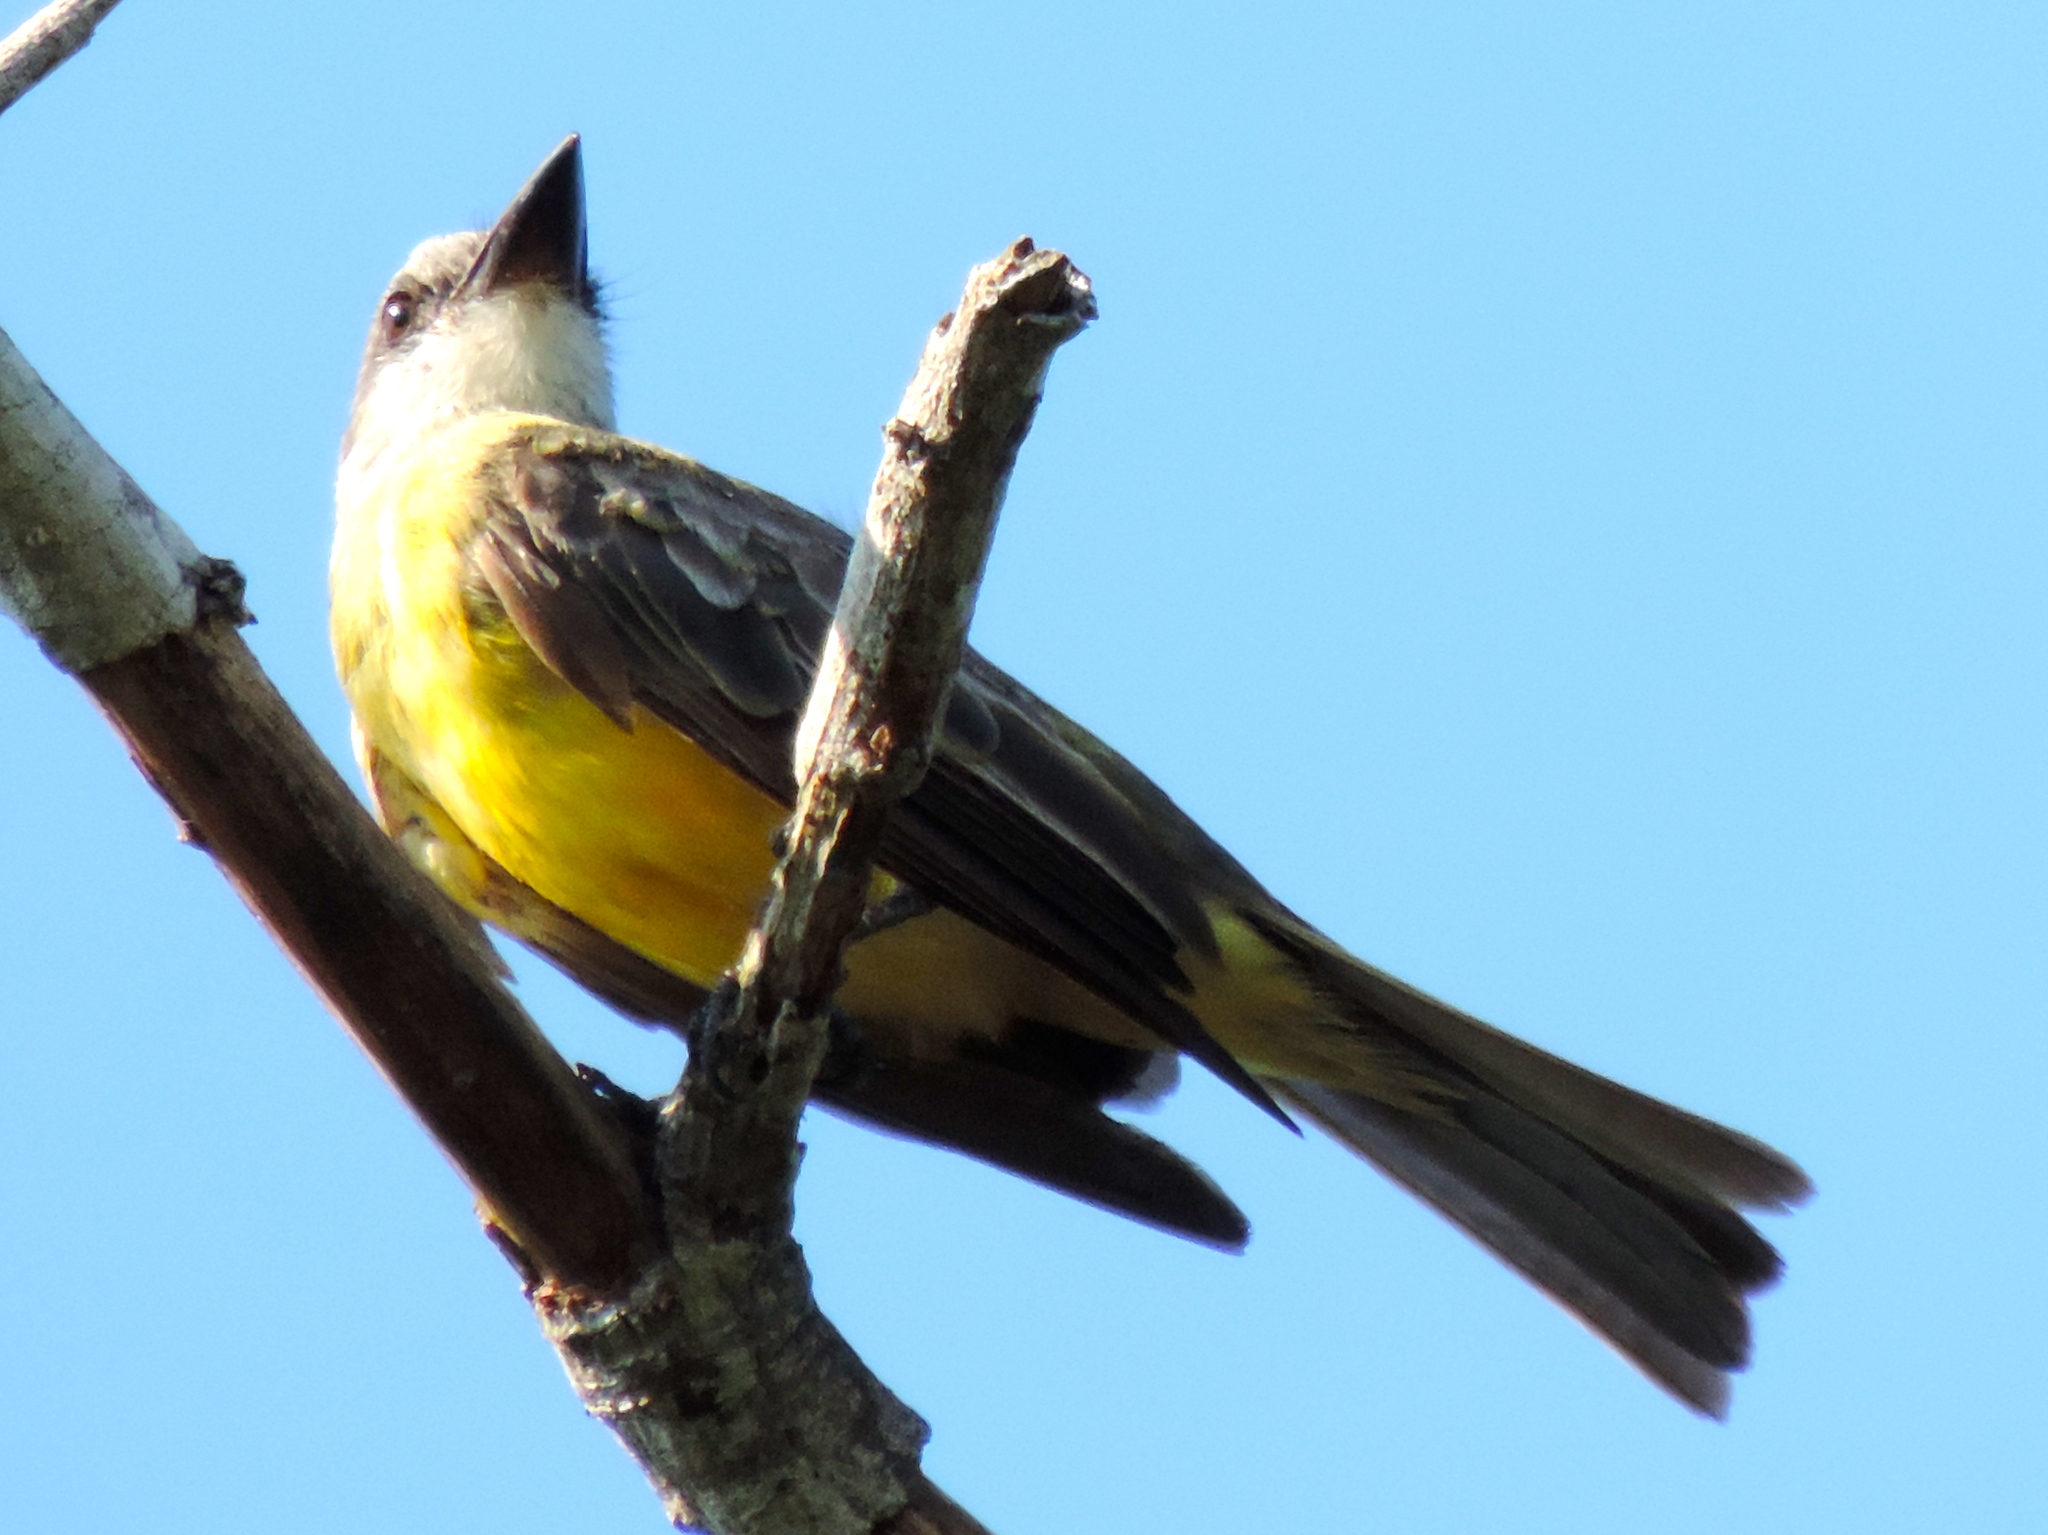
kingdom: Animalia
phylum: Chordata
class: Aves
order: Passeriformes
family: Tyrannidae
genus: Tyrannus
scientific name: Tyrannus melancholicus
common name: Tropical kingbird
